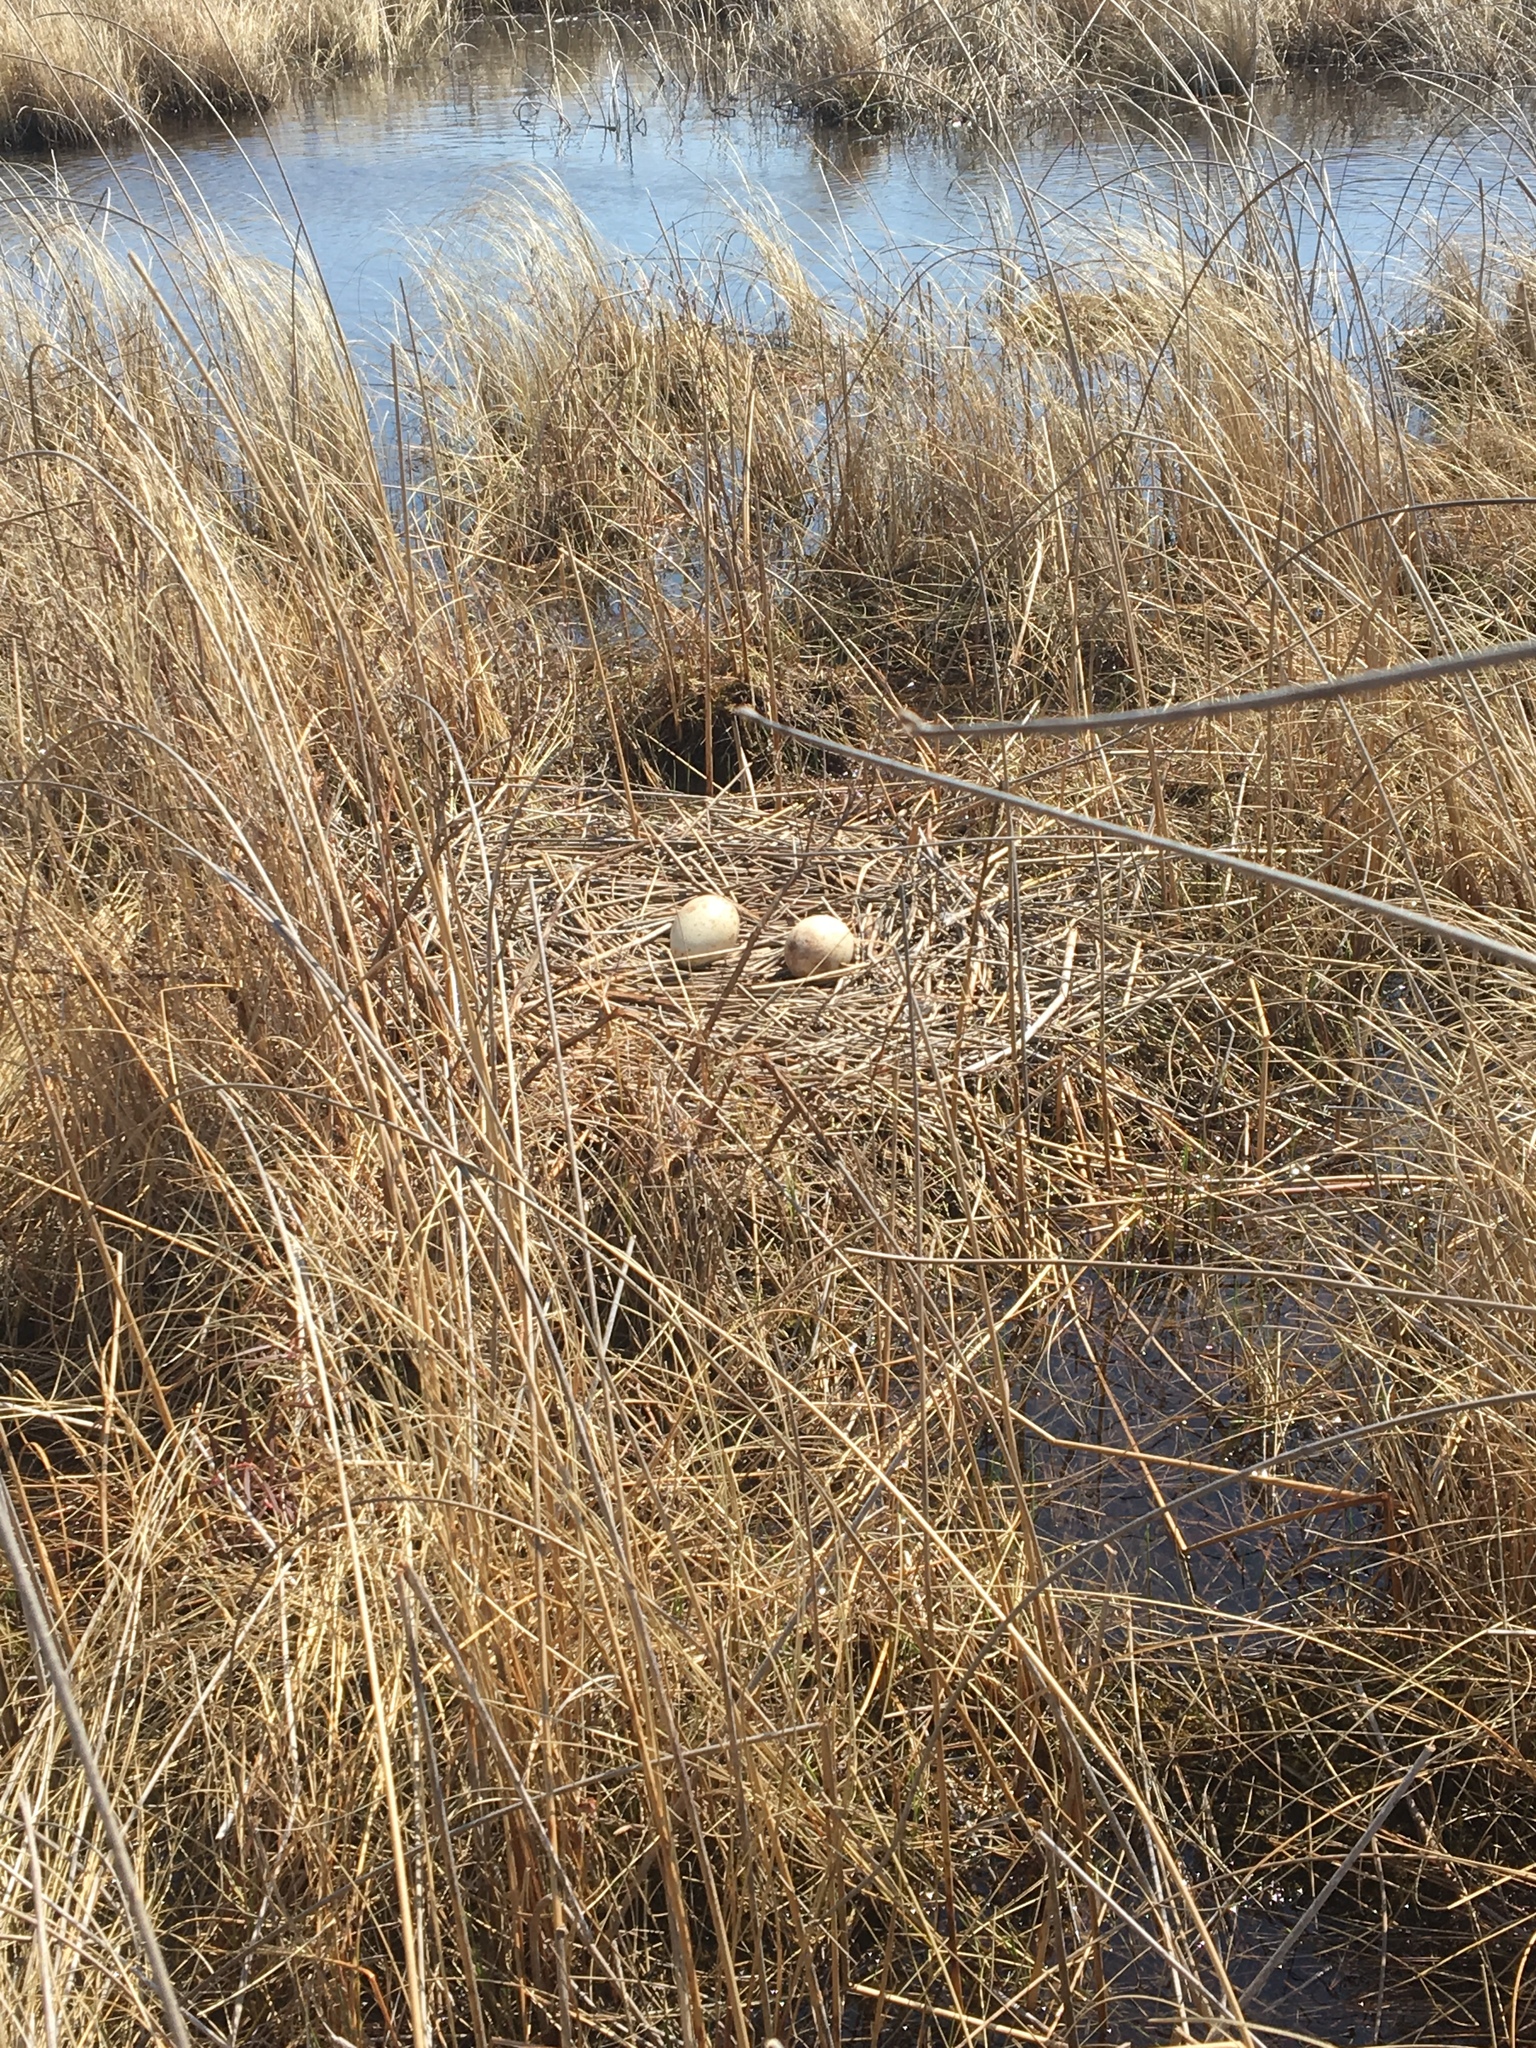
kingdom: Animalia
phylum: Chordata
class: Aves
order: Gruiformes
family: Gruidae
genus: Grus
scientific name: Grus canadensis
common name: Sandhill crane
